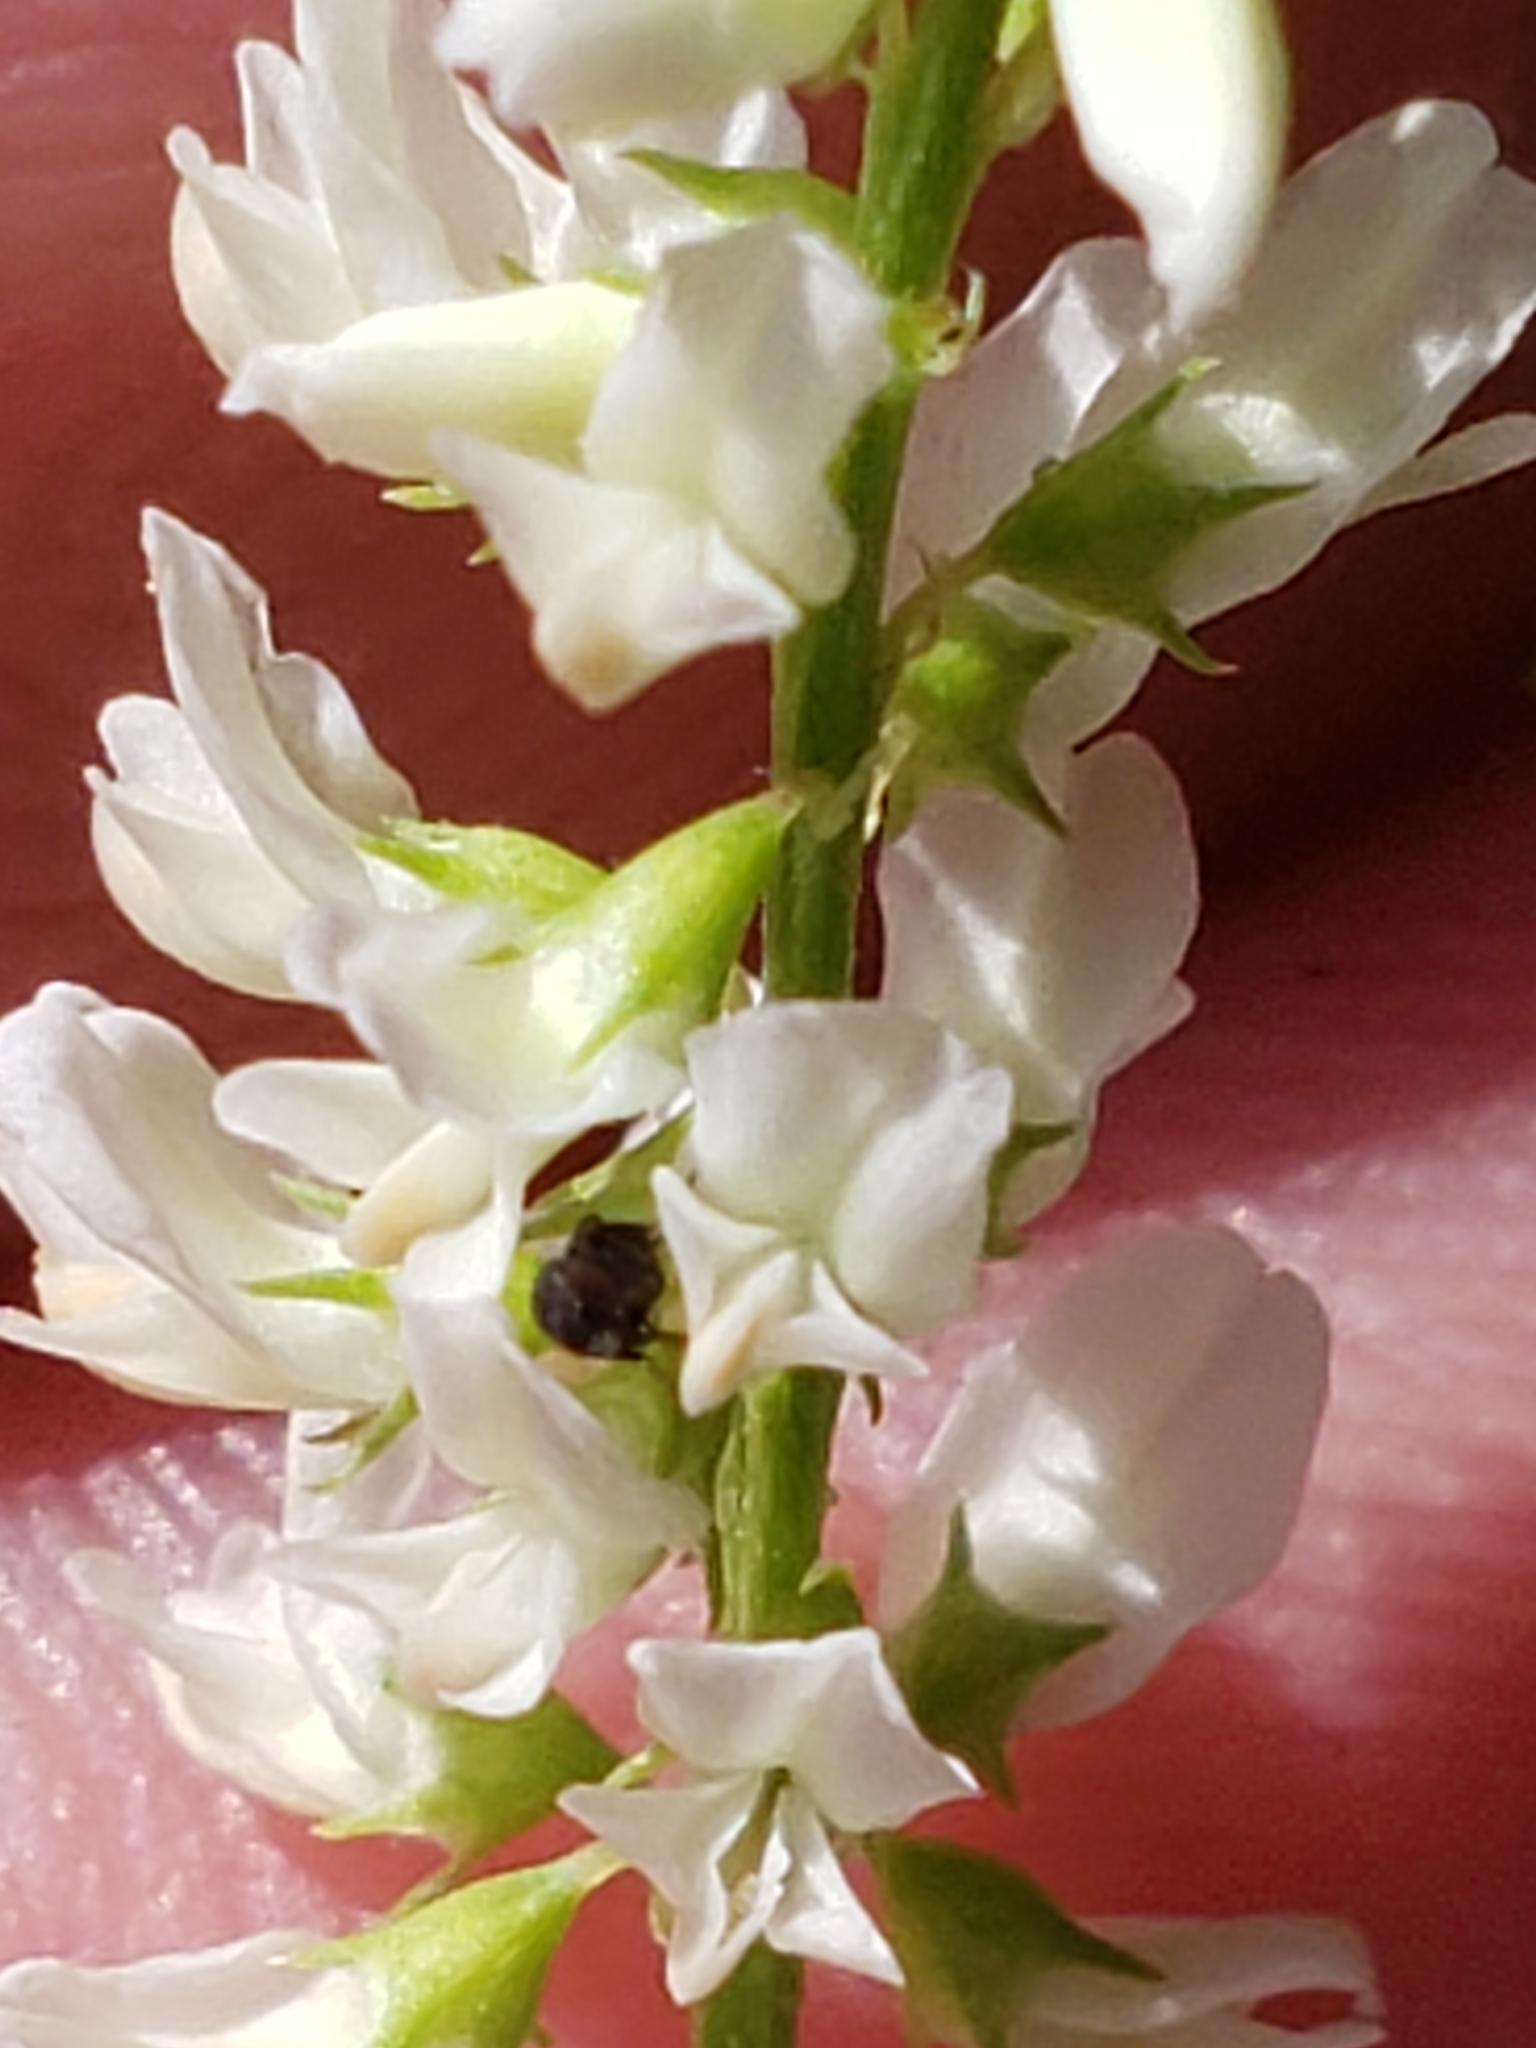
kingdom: Plantae
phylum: Tracheophyta
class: Magnoliopsida
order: Fabales
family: Fabaceae
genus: Melilotus
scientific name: Melilotus albus
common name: White melilot
